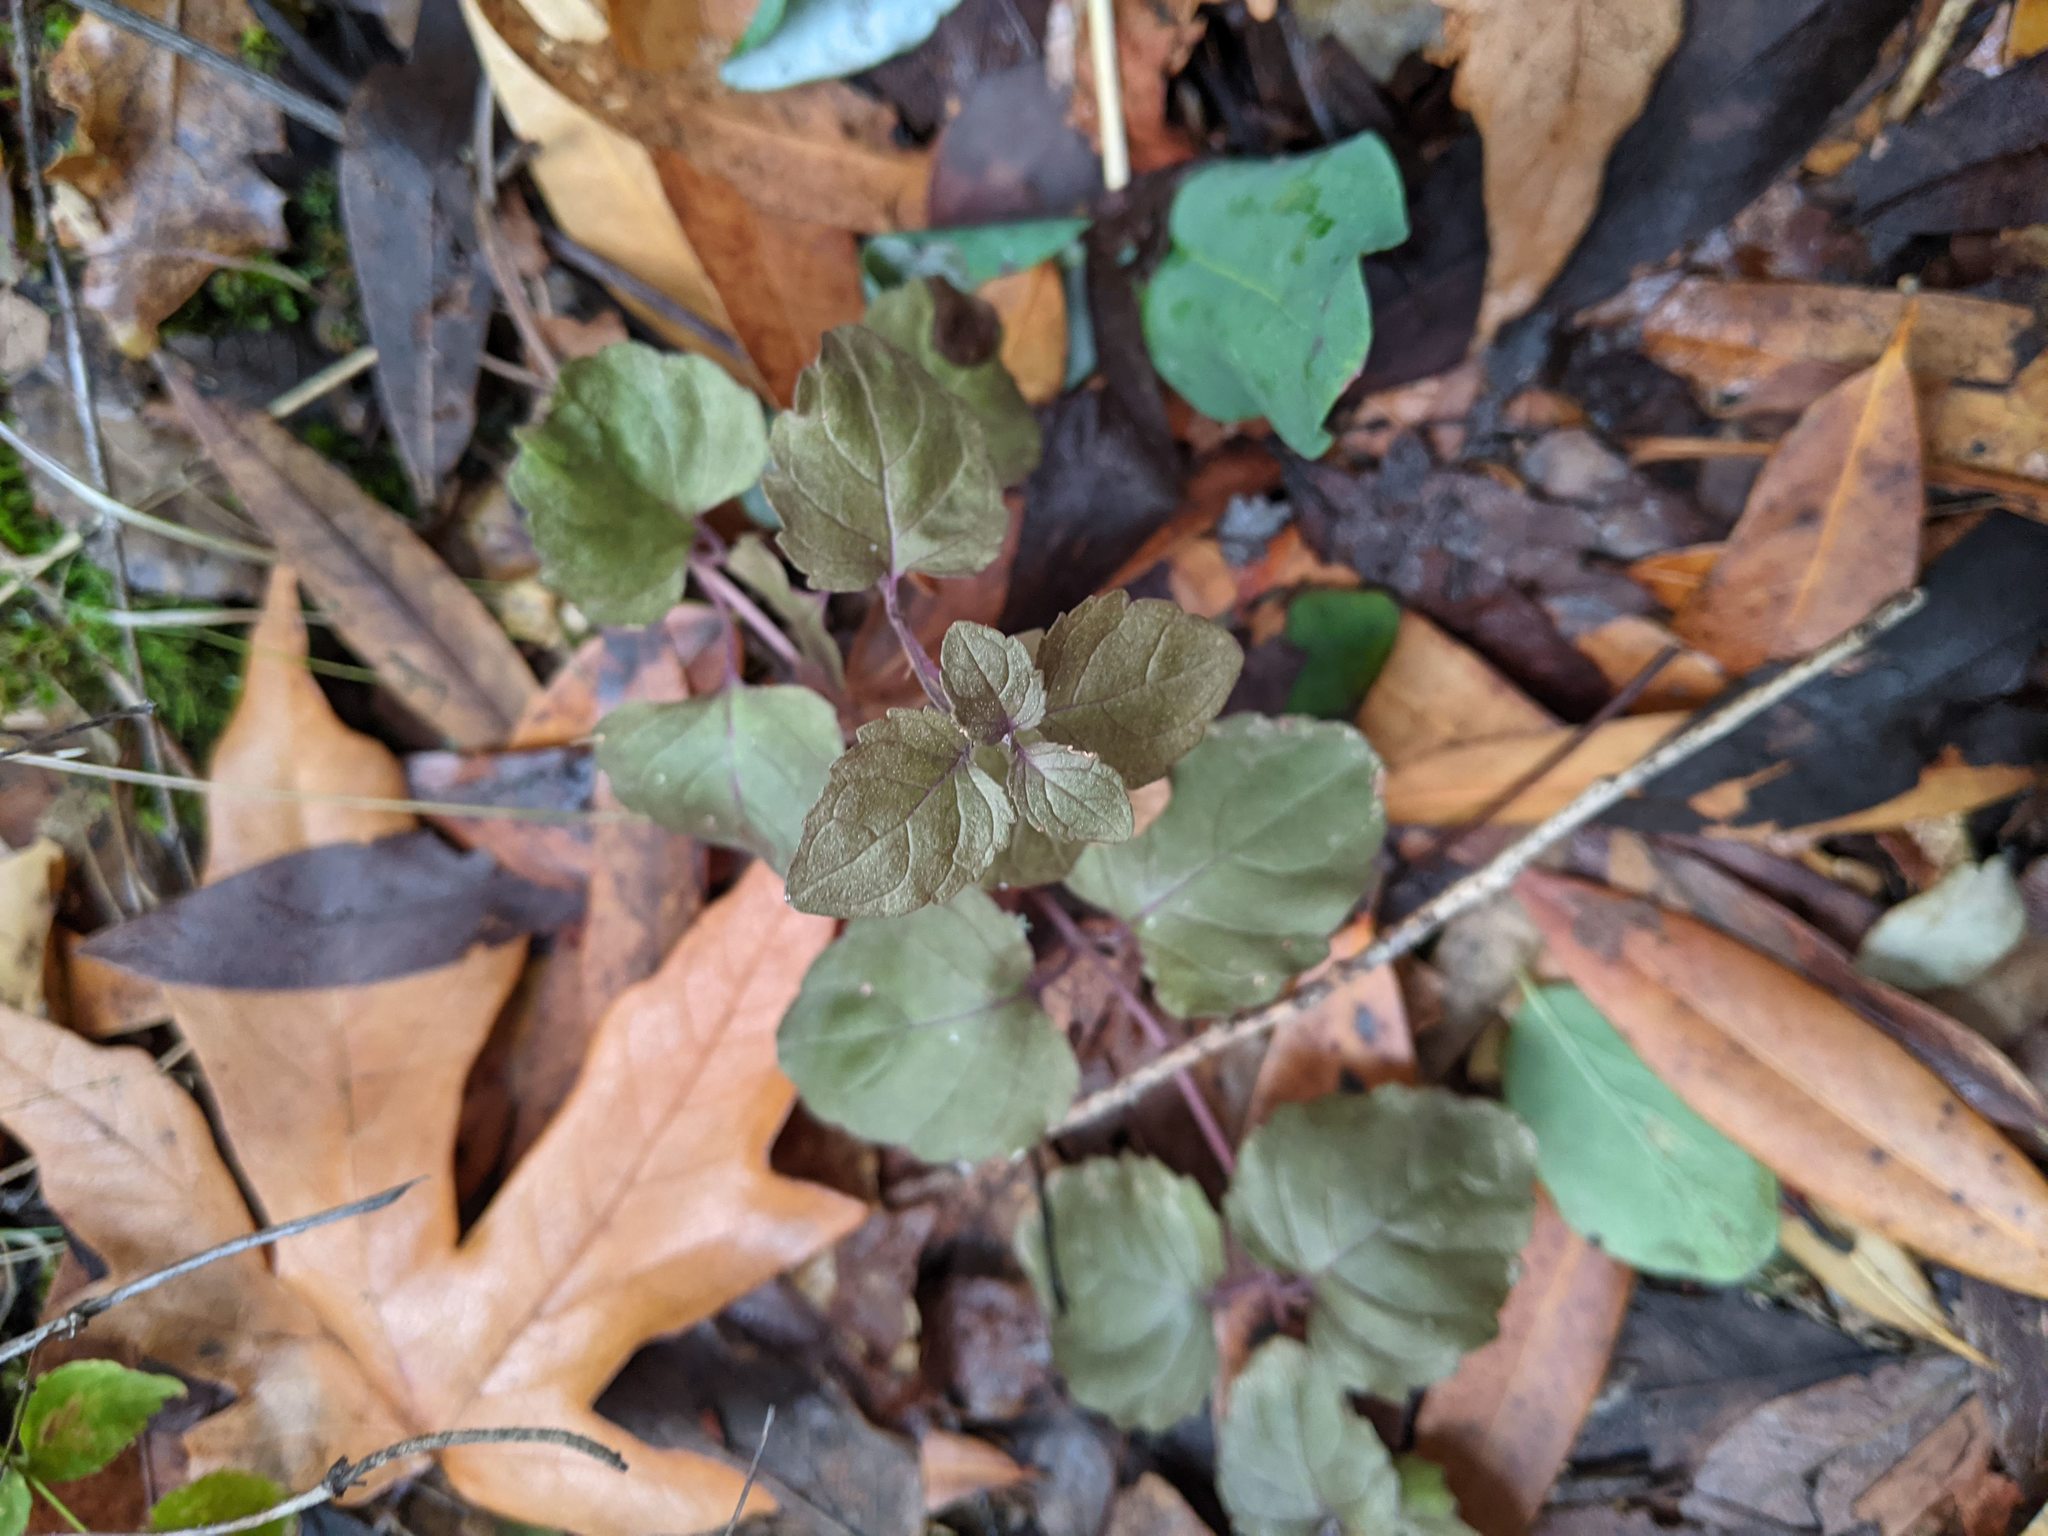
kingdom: Plantae
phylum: Tracheophyta
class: Magnoliopsida
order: Lamiales
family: Lamiaceae
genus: Micromeria
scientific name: Micromeria douglasii
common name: Yerba buena
